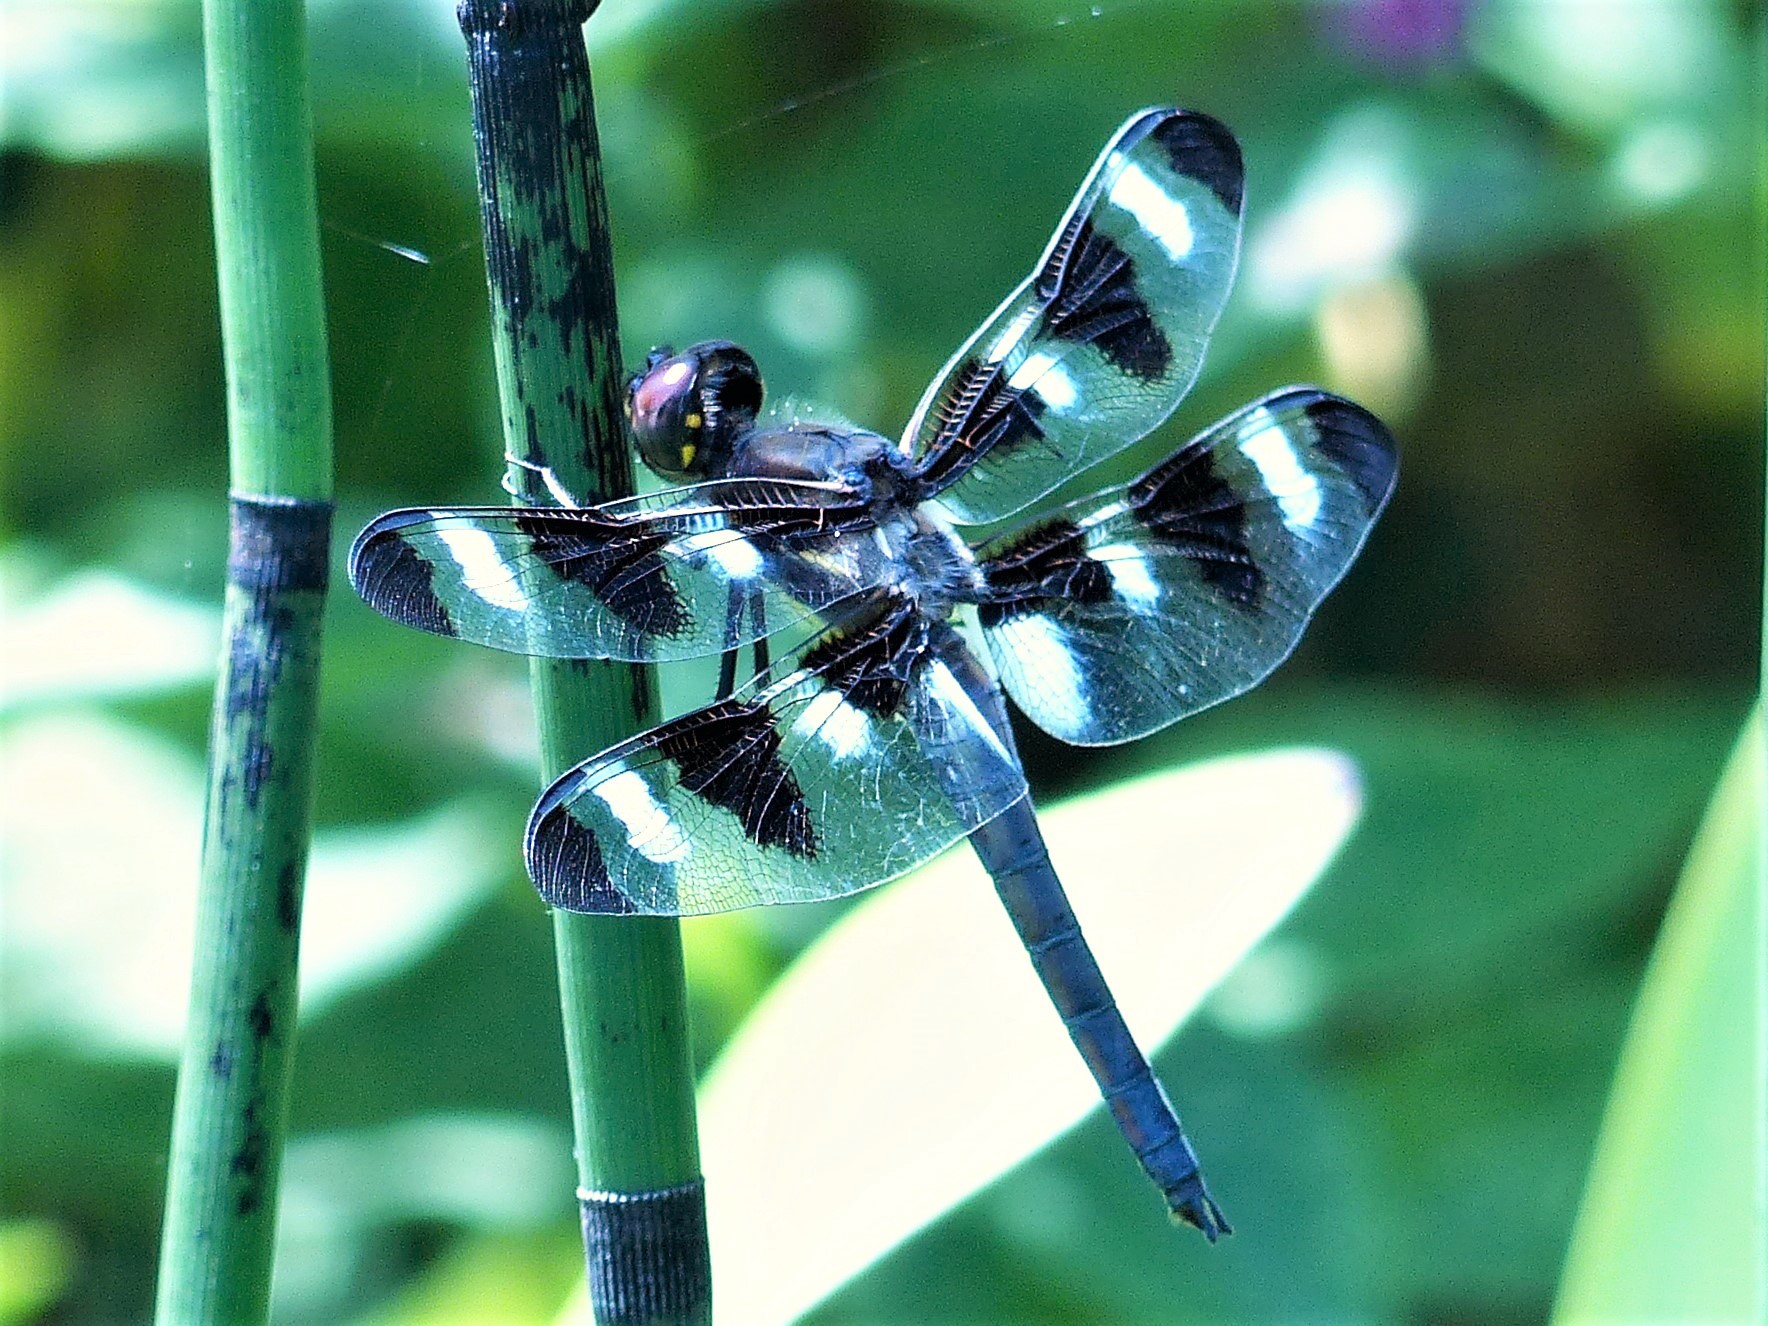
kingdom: Animalia
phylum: Arthropoda
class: Insecta
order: Odonata
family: Libellulidae
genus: Libellula
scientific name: Libellula pulchella
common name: Twelve-spotted skimmer
